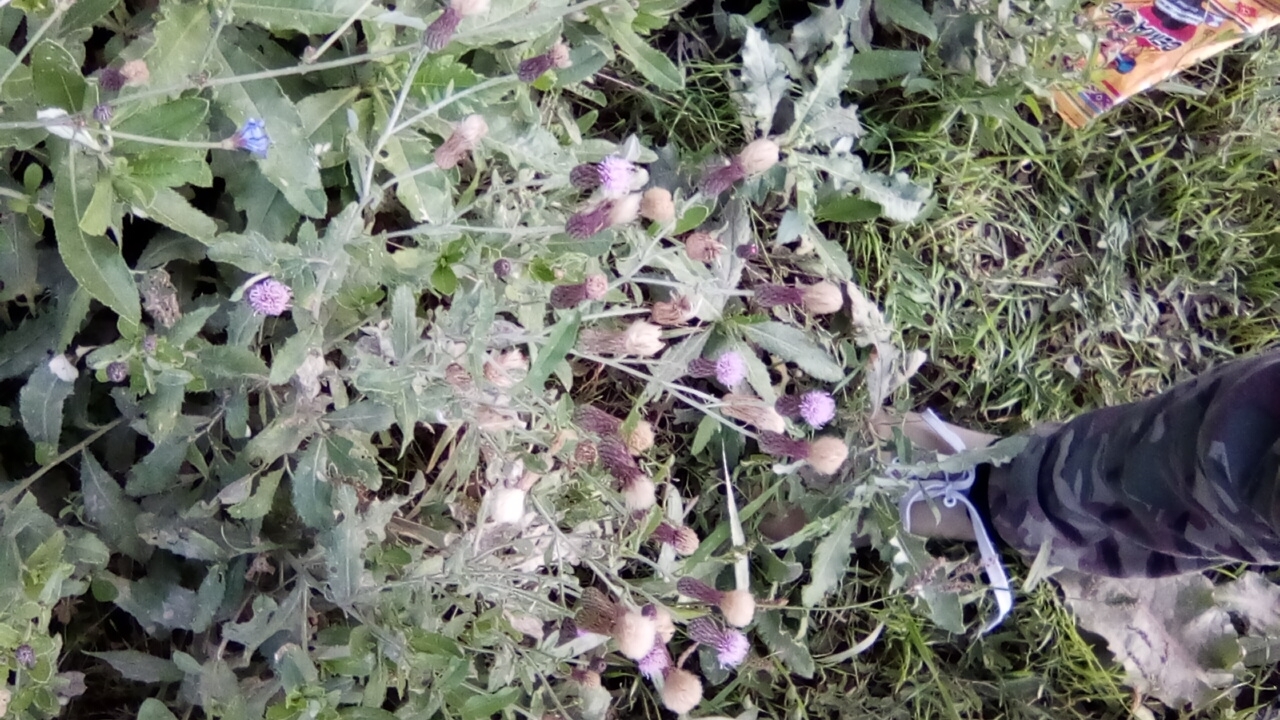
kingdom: Plantae
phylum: Tracheophyta
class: Magnoliopsida
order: Asterales
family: Asteraceae
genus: Cirsium
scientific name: Cirsium arvense
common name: Creeping thistle
